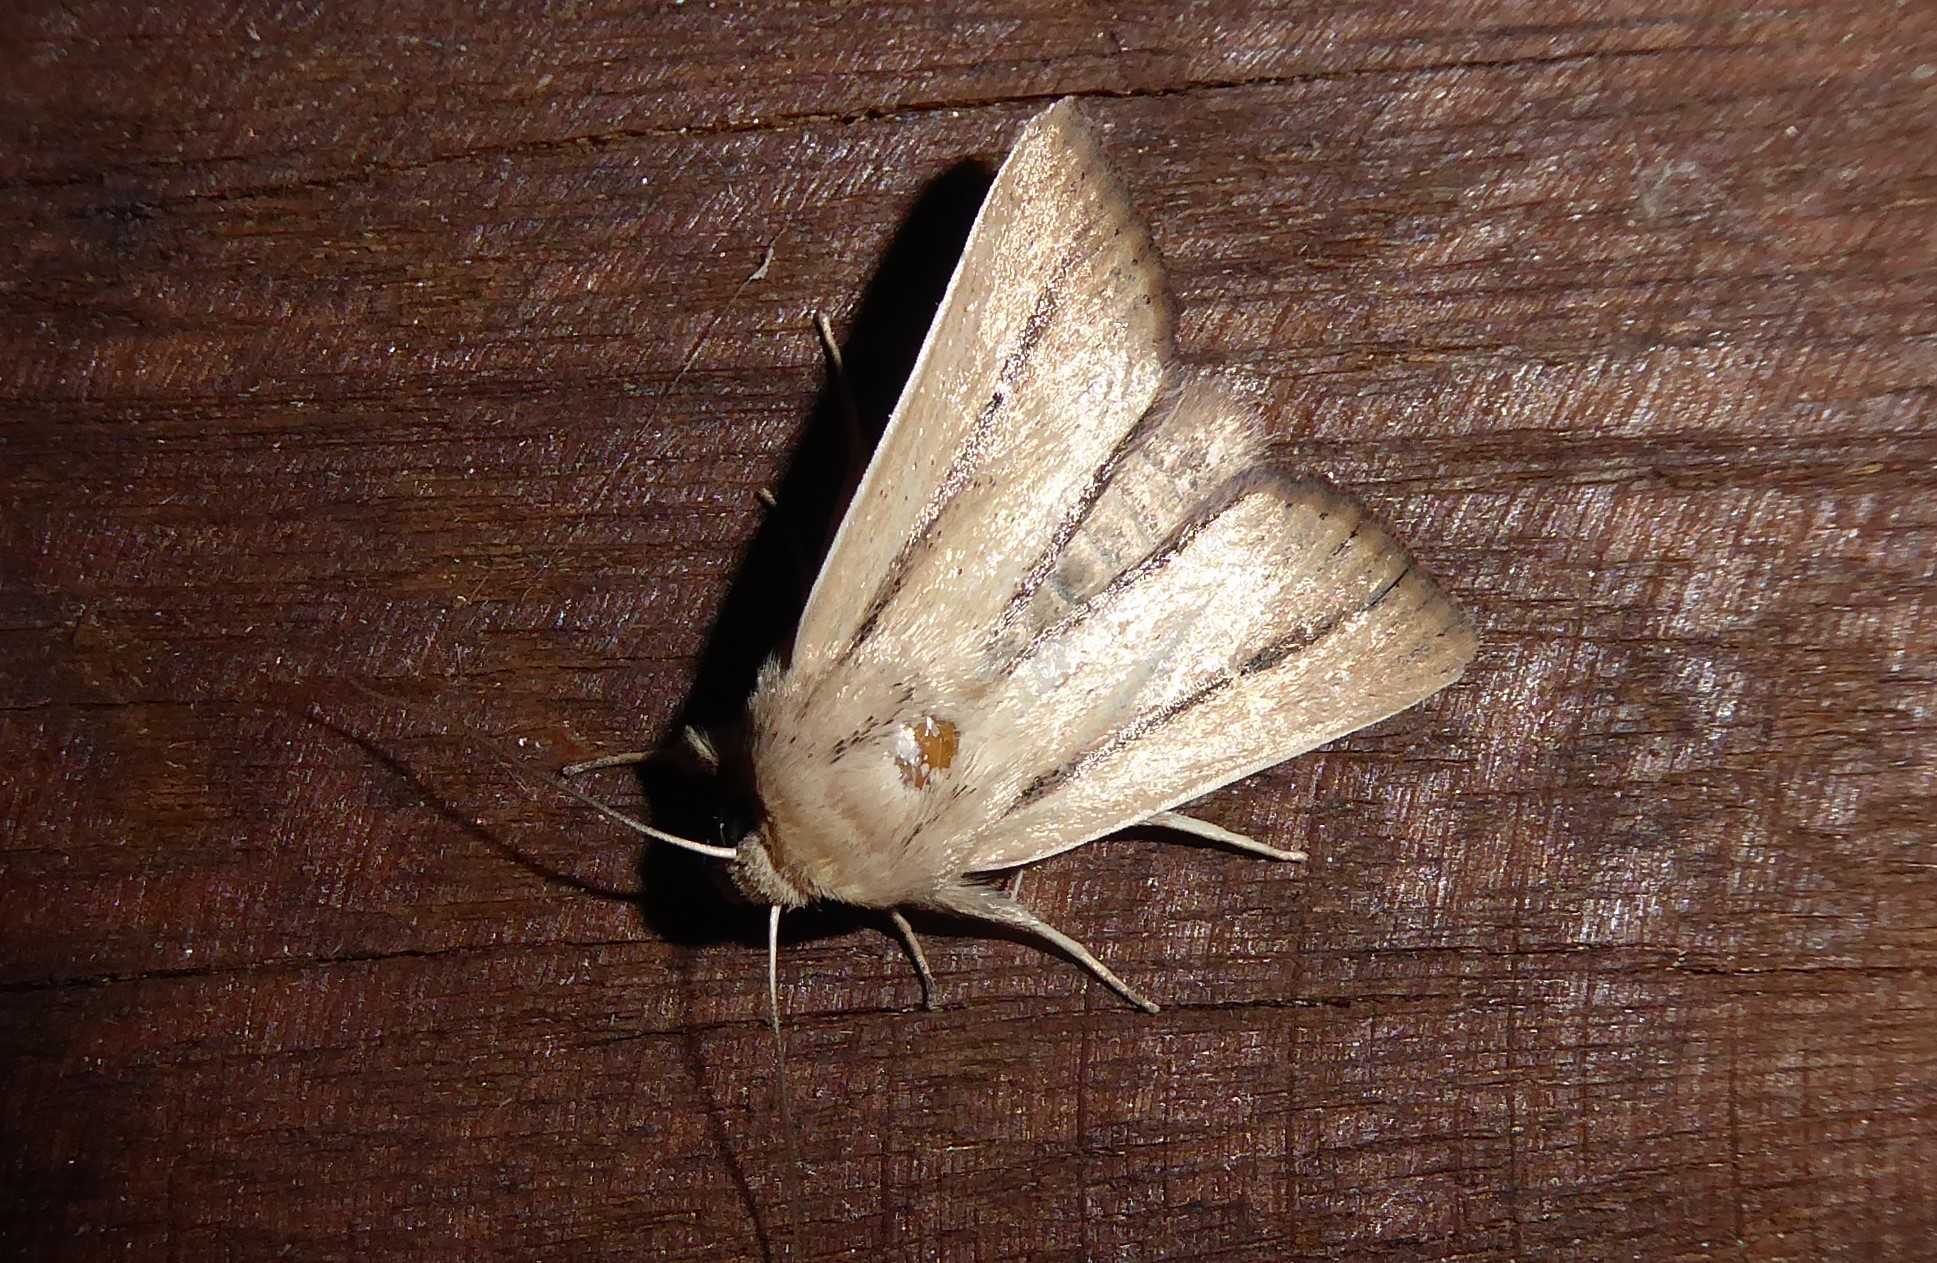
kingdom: Animalia
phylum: Arthropoda
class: Insecta
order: Lepidoptera
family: Noctuidae
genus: Leucania
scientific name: Leucania diatrecta
